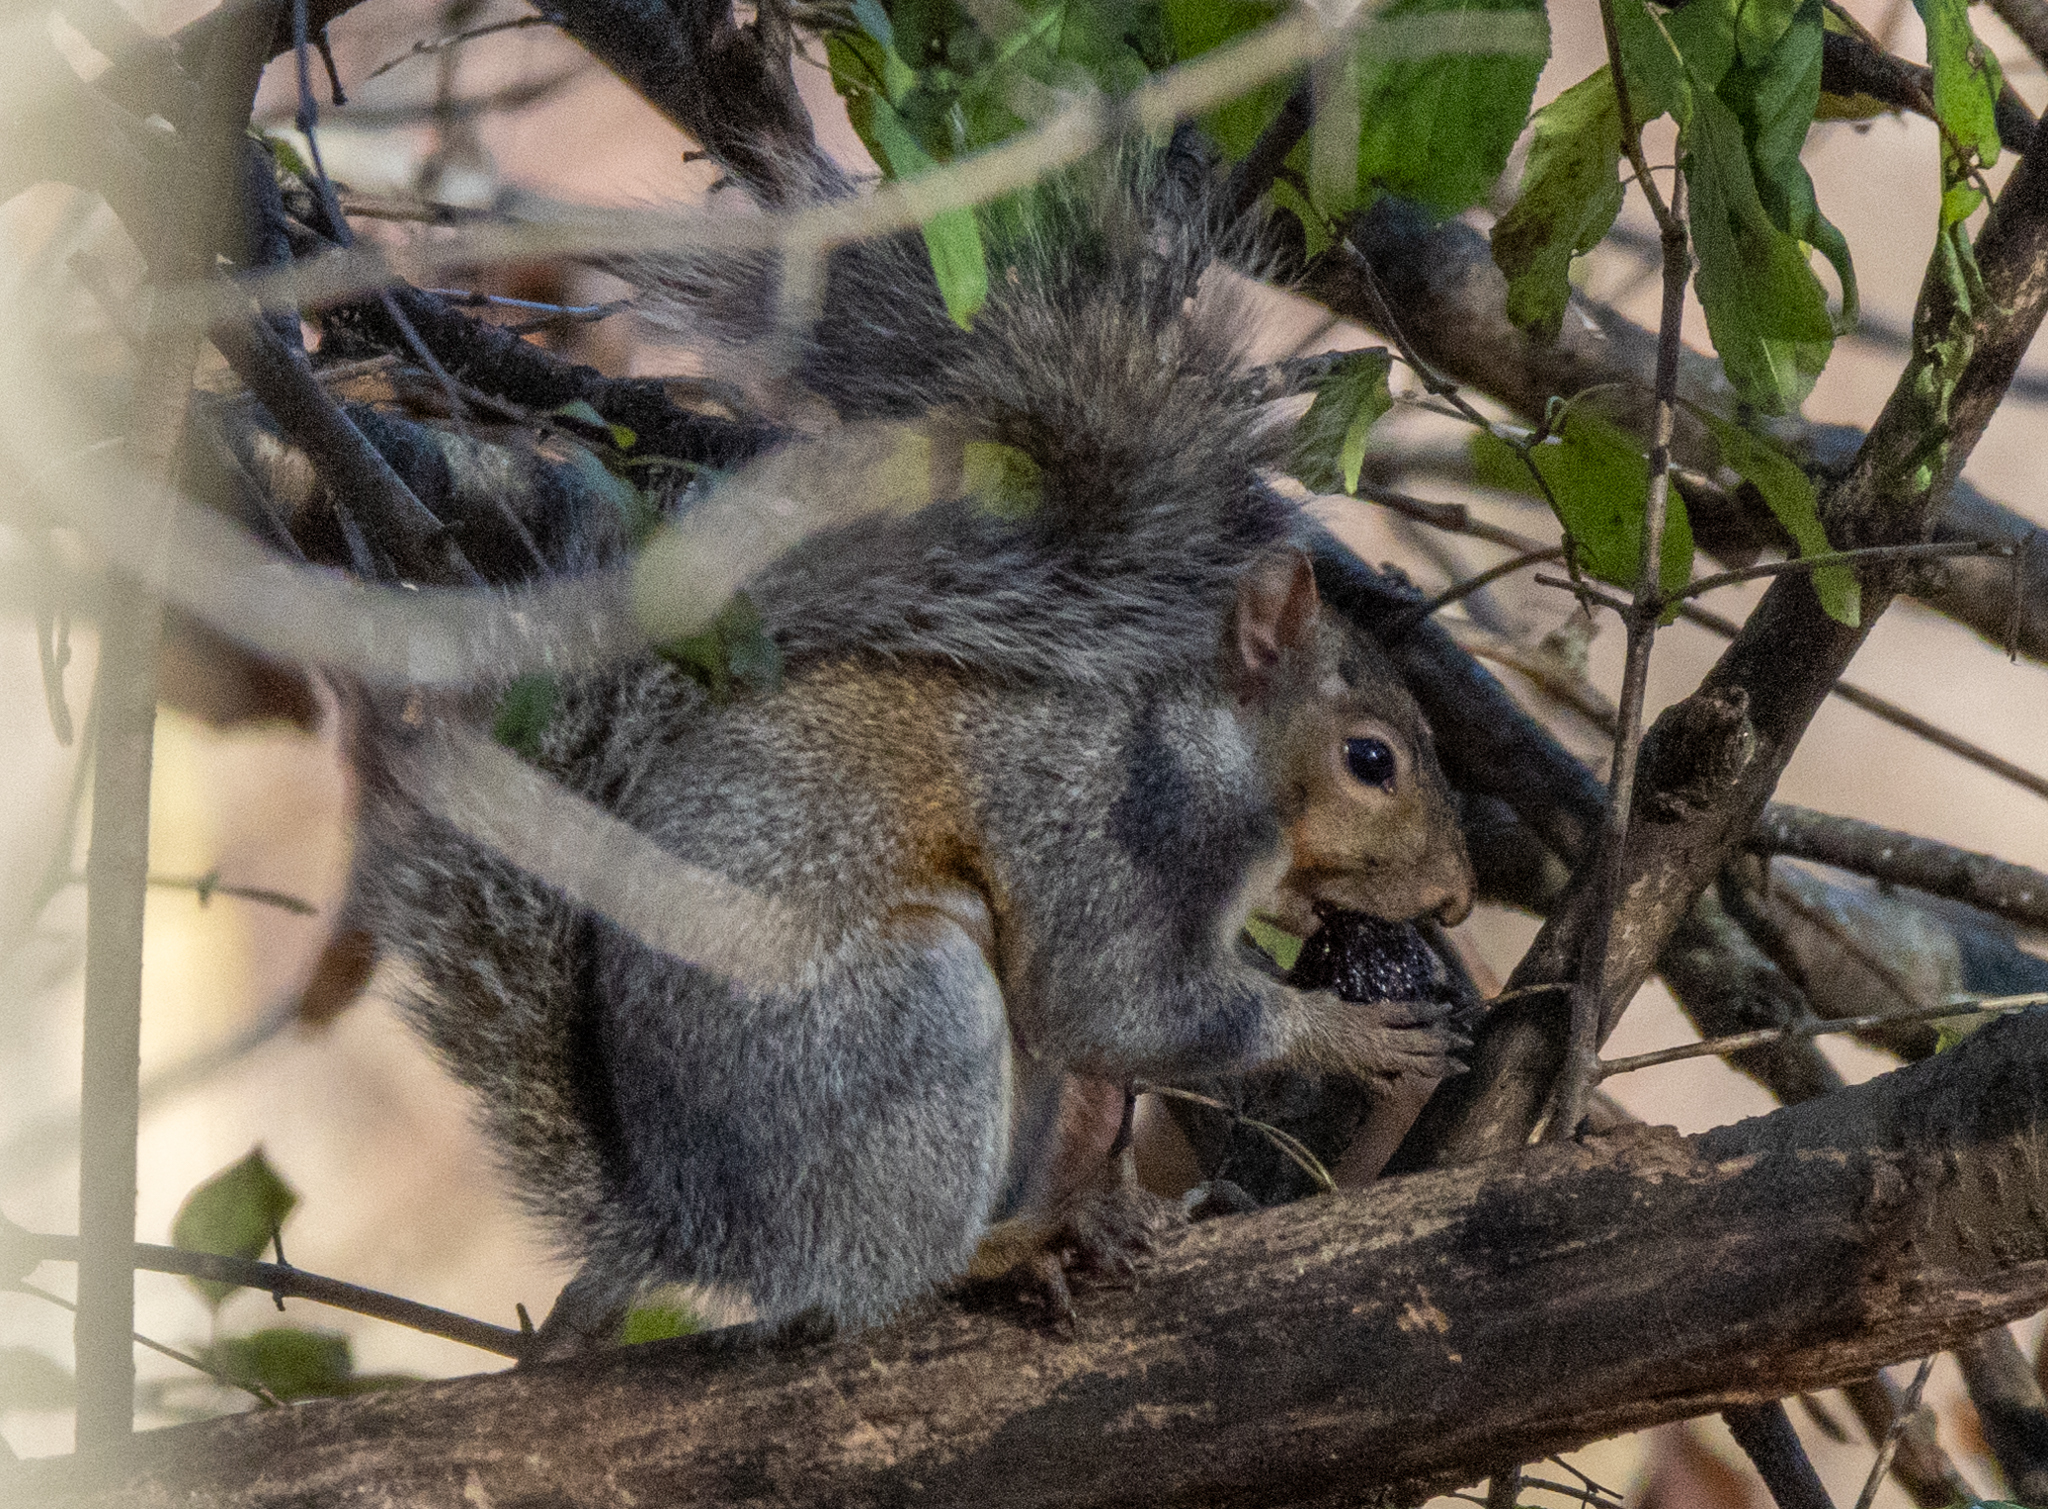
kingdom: Animalia
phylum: Chordata
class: Mammalia
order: Rodentia
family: Sciuridae
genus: Sciurus
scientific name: Sciurus carolinensis
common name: Eastern gray squirrel
